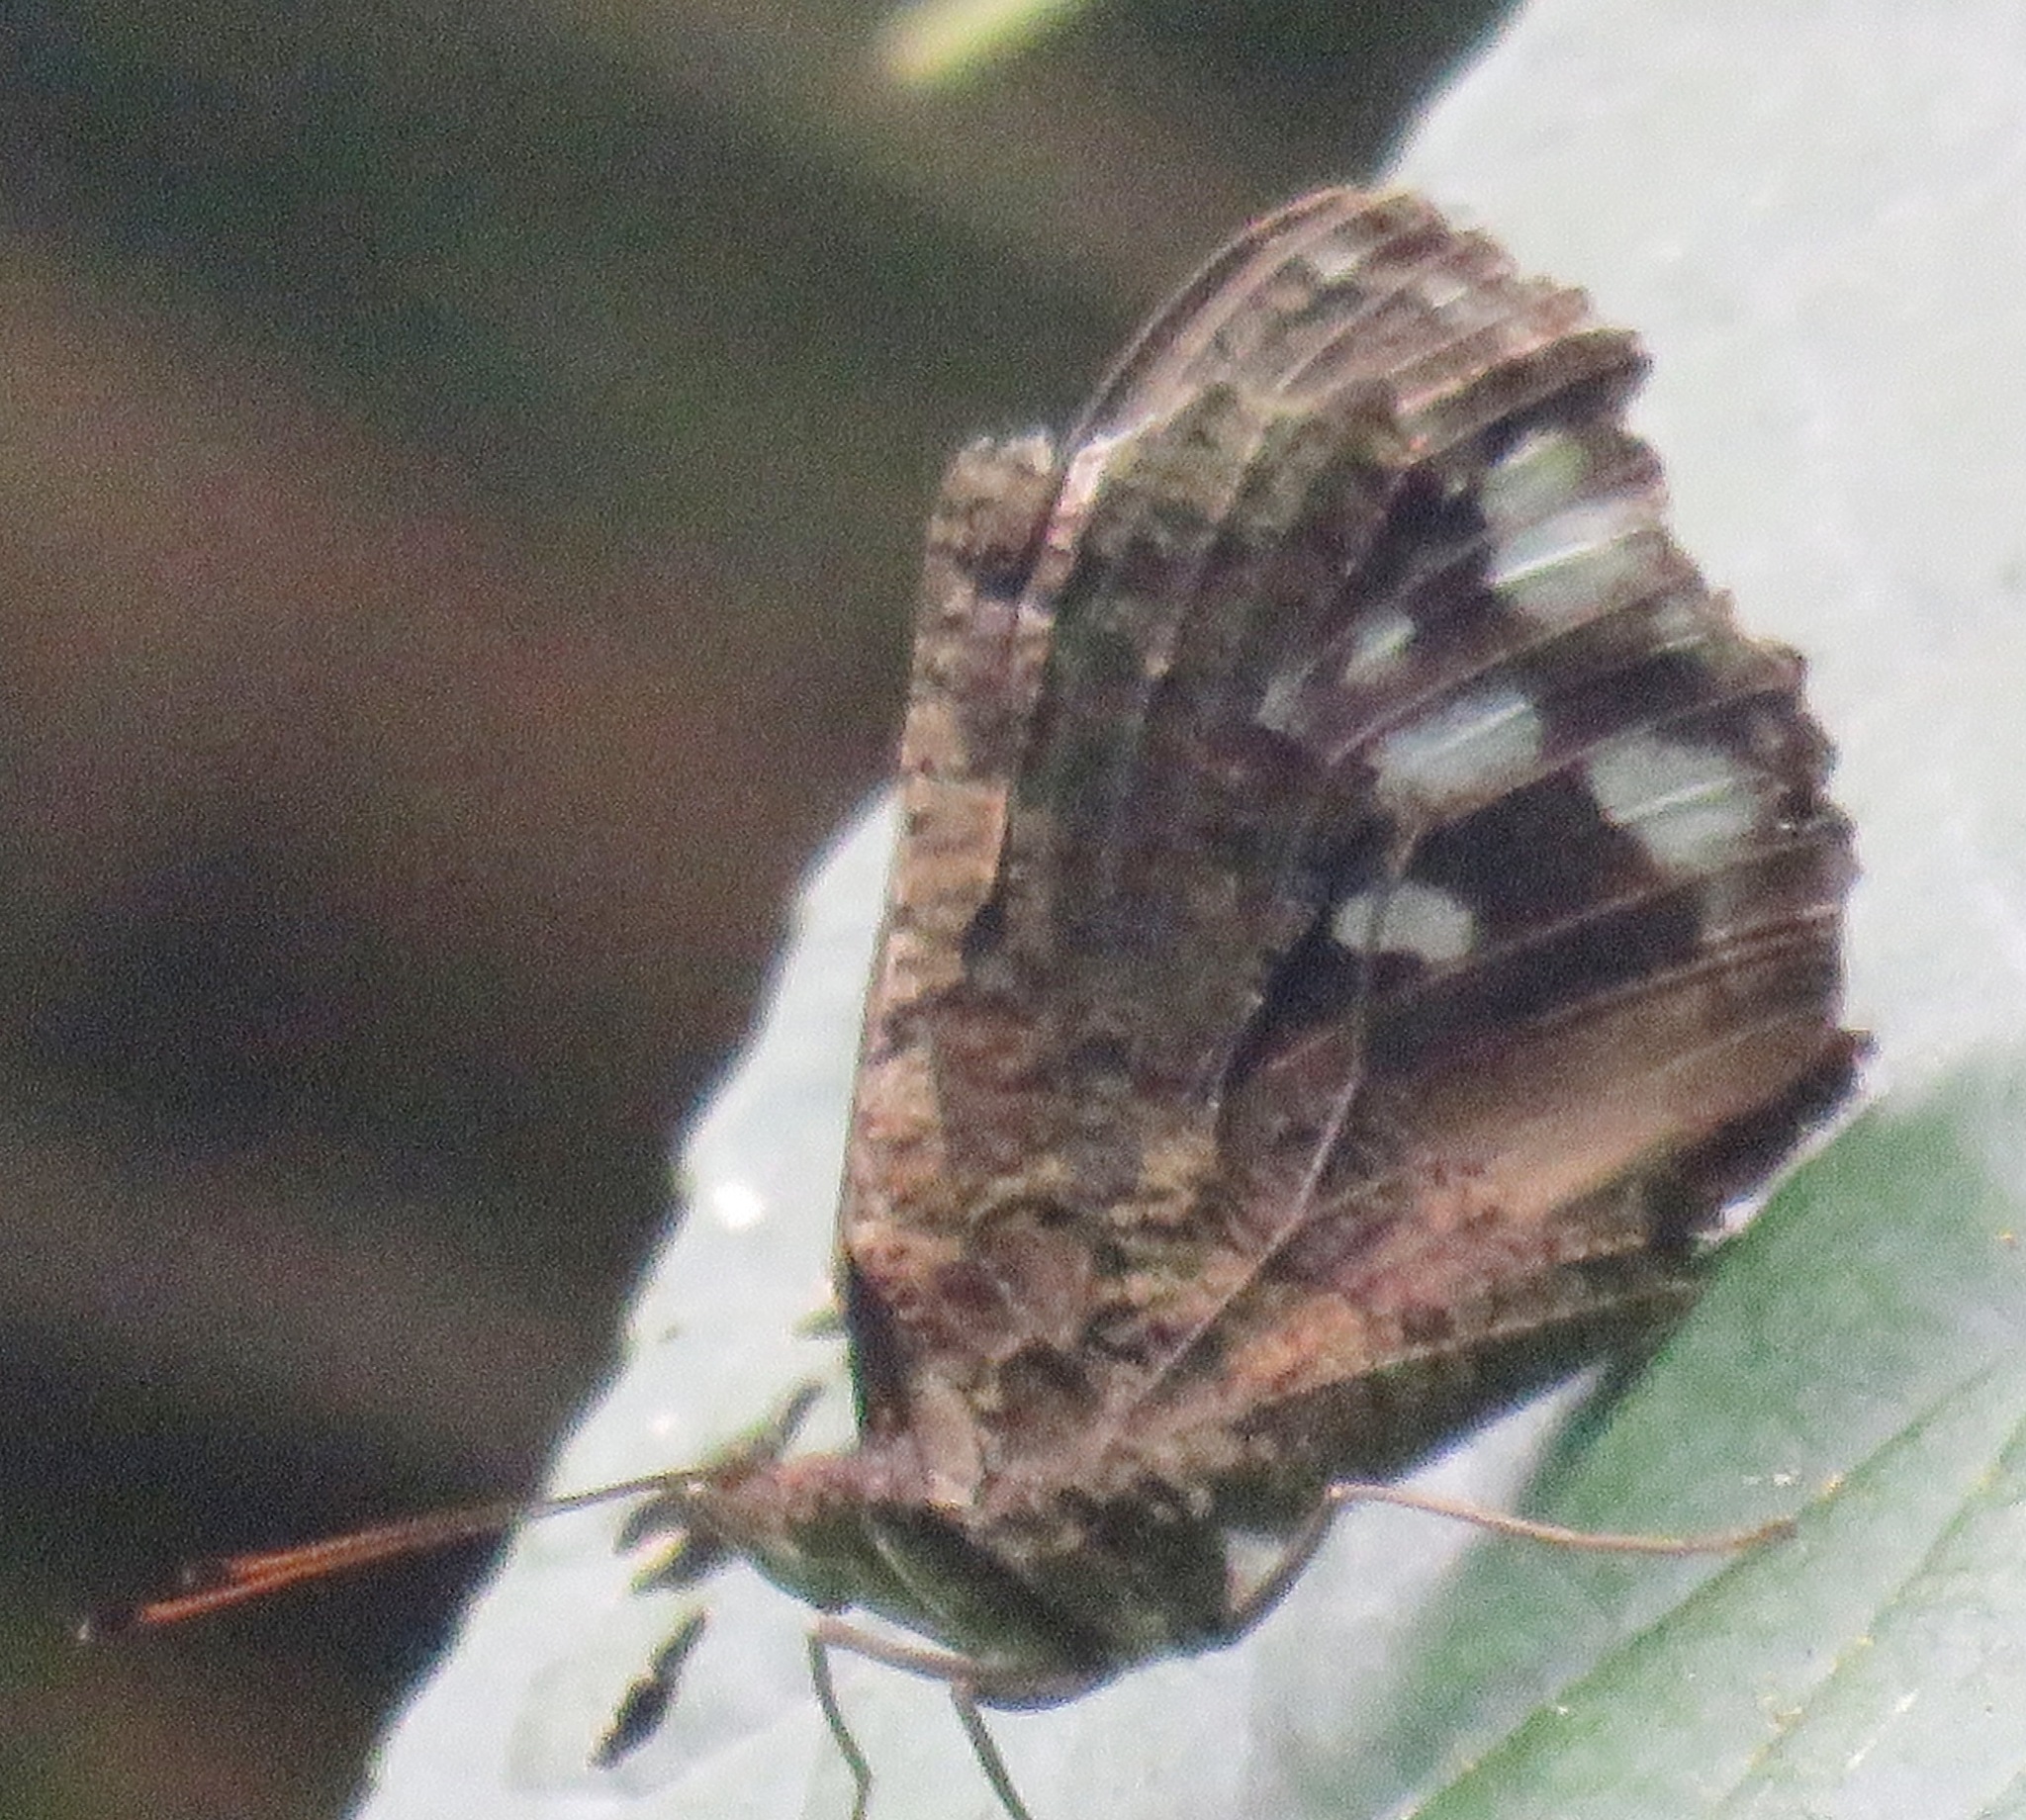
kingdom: Animalia
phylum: Arthropoda
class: Insecta
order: Lepidoptera
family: Nymphalidae
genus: Myscelia
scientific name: Myscelia ethusa
